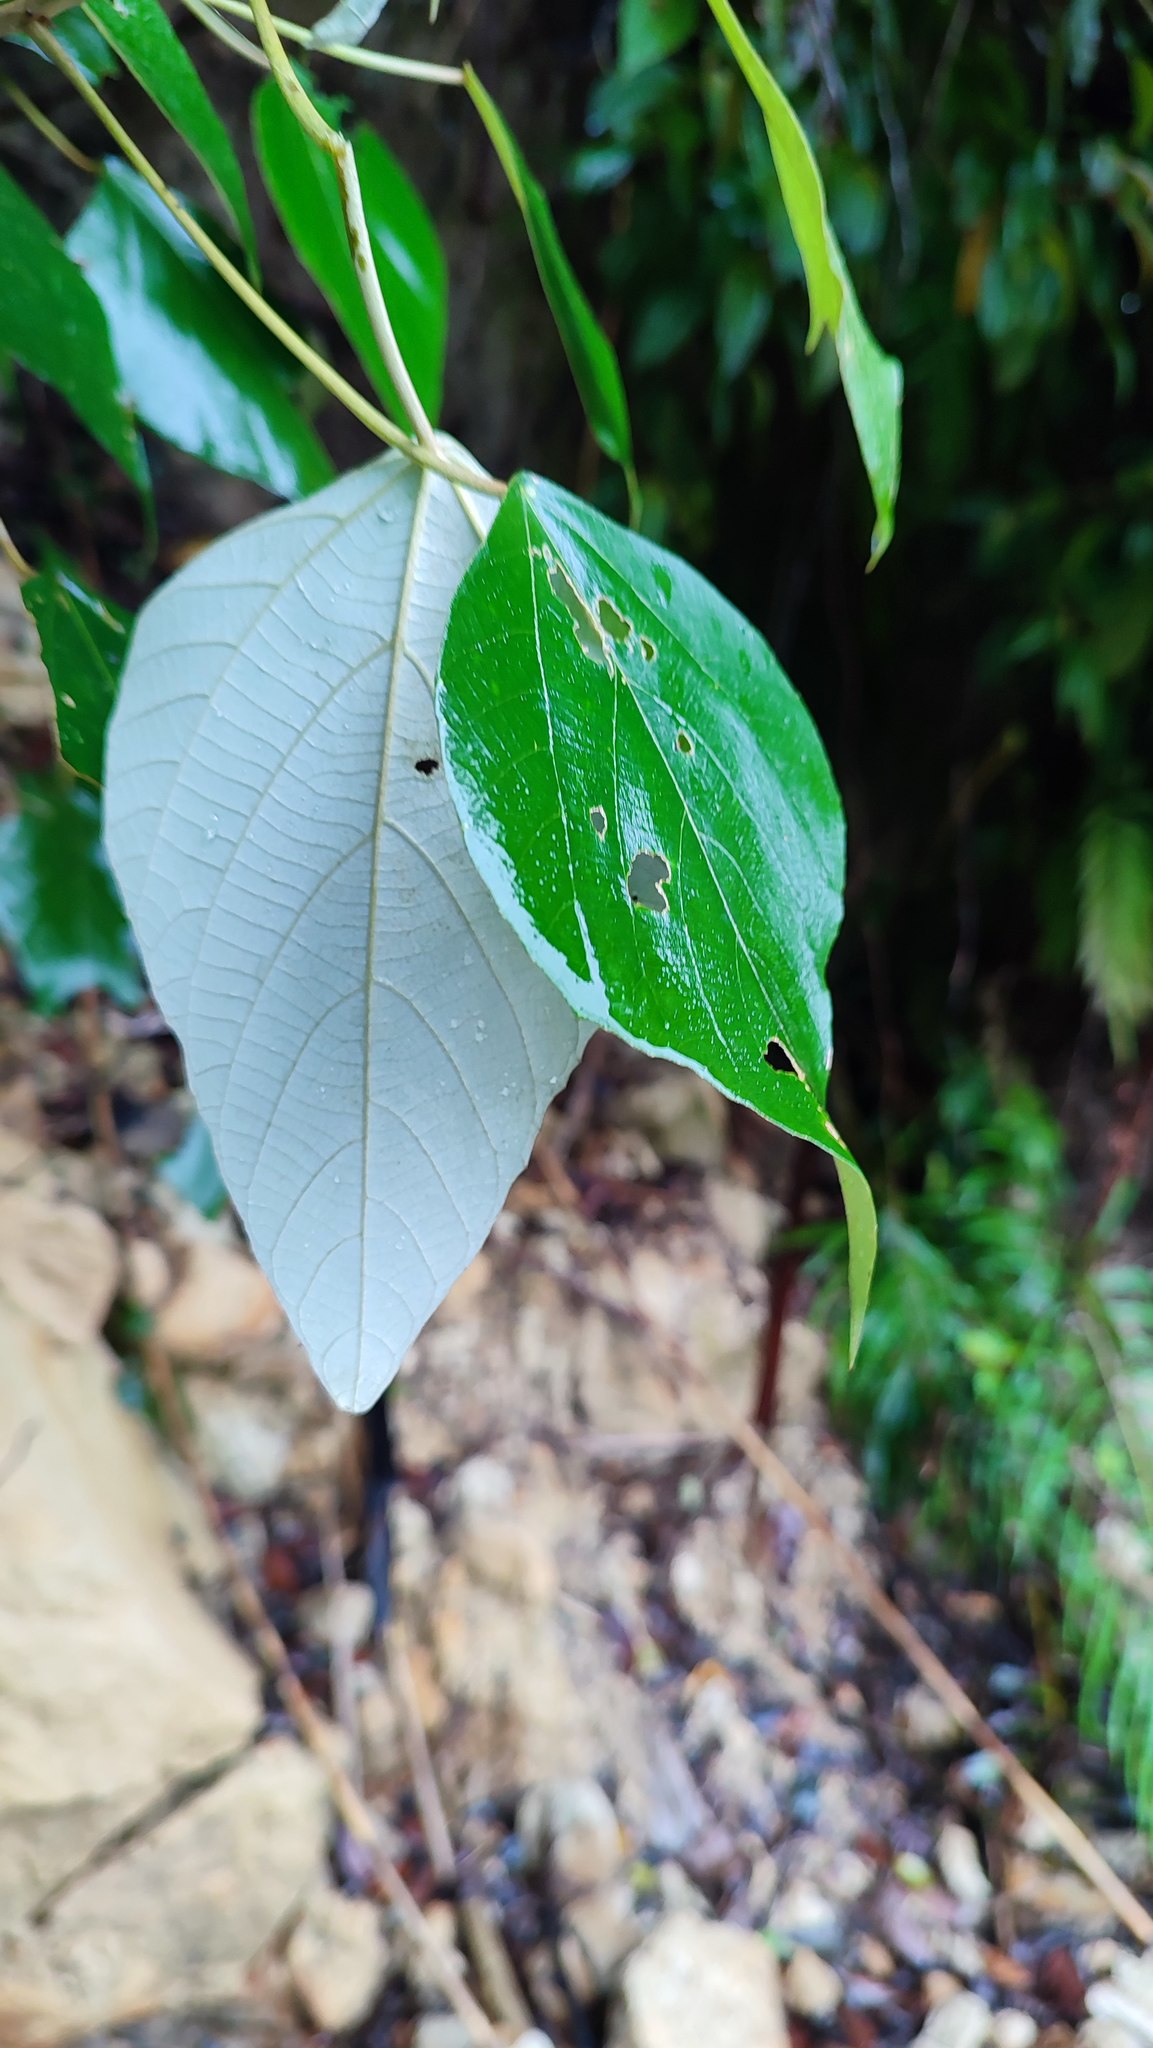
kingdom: Plantae
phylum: Tracheophyta
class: Magnoliopsida
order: Malpighiales
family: Euphorbiaceae
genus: Mallotus
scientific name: Mallotus paniculatus
